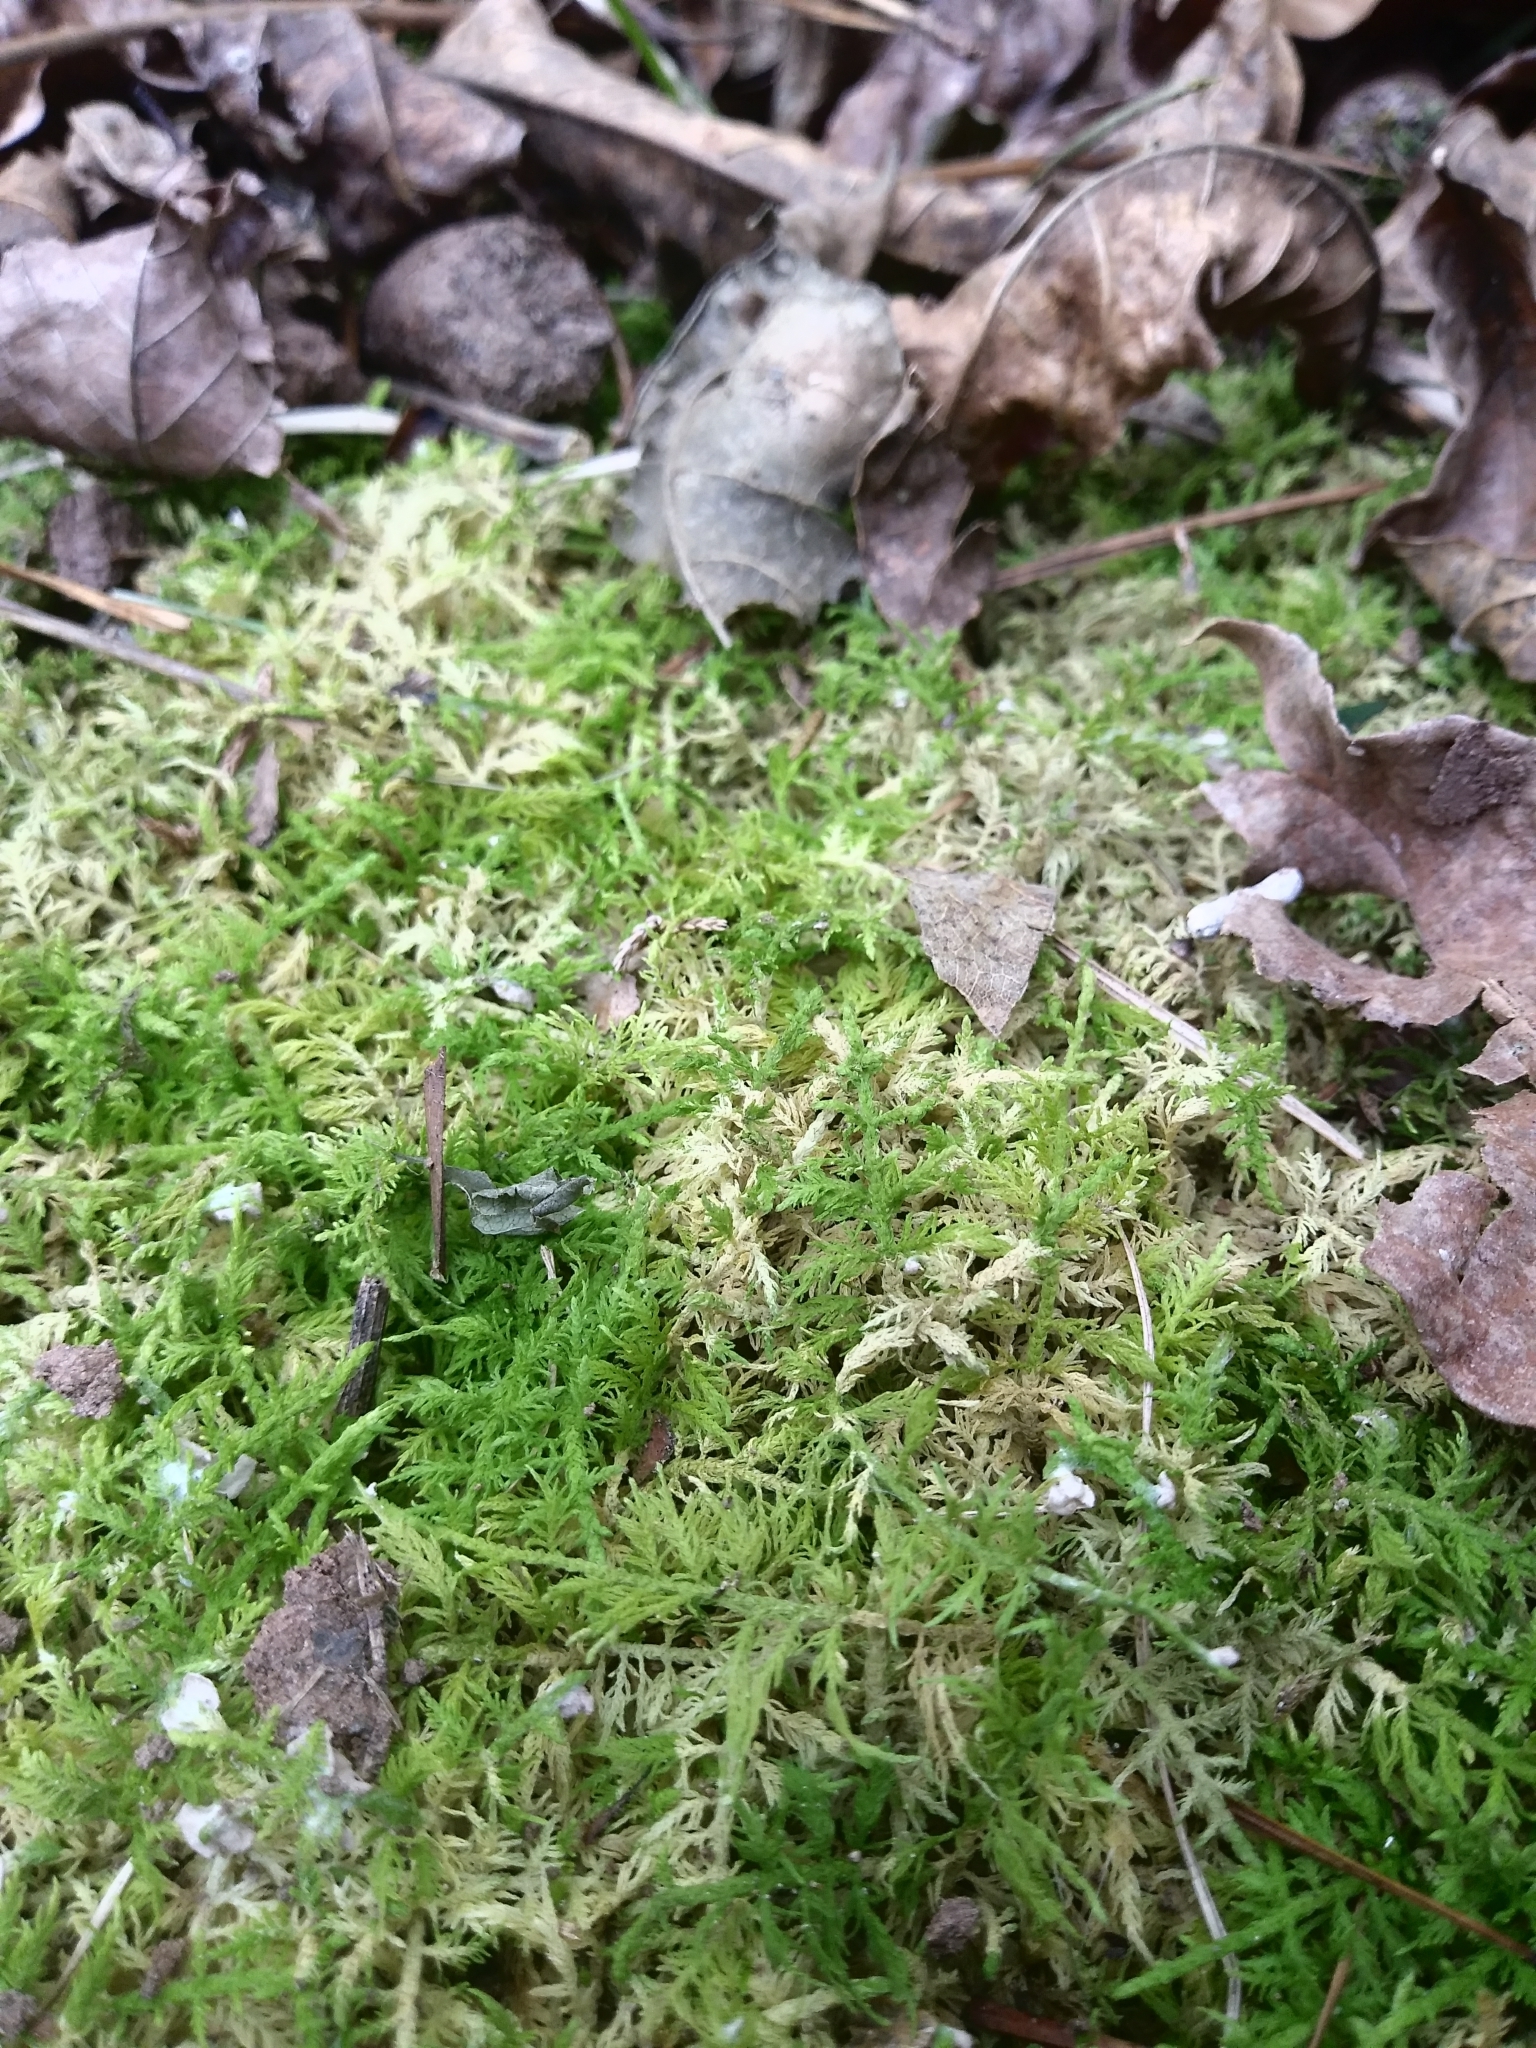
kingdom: Plantae
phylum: Bryophyta
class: Bryopsida
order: Hypnales
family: Thuidiaceae
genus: Thuidium
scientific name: Thuidium delicatulum
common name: Delicate fern moss
